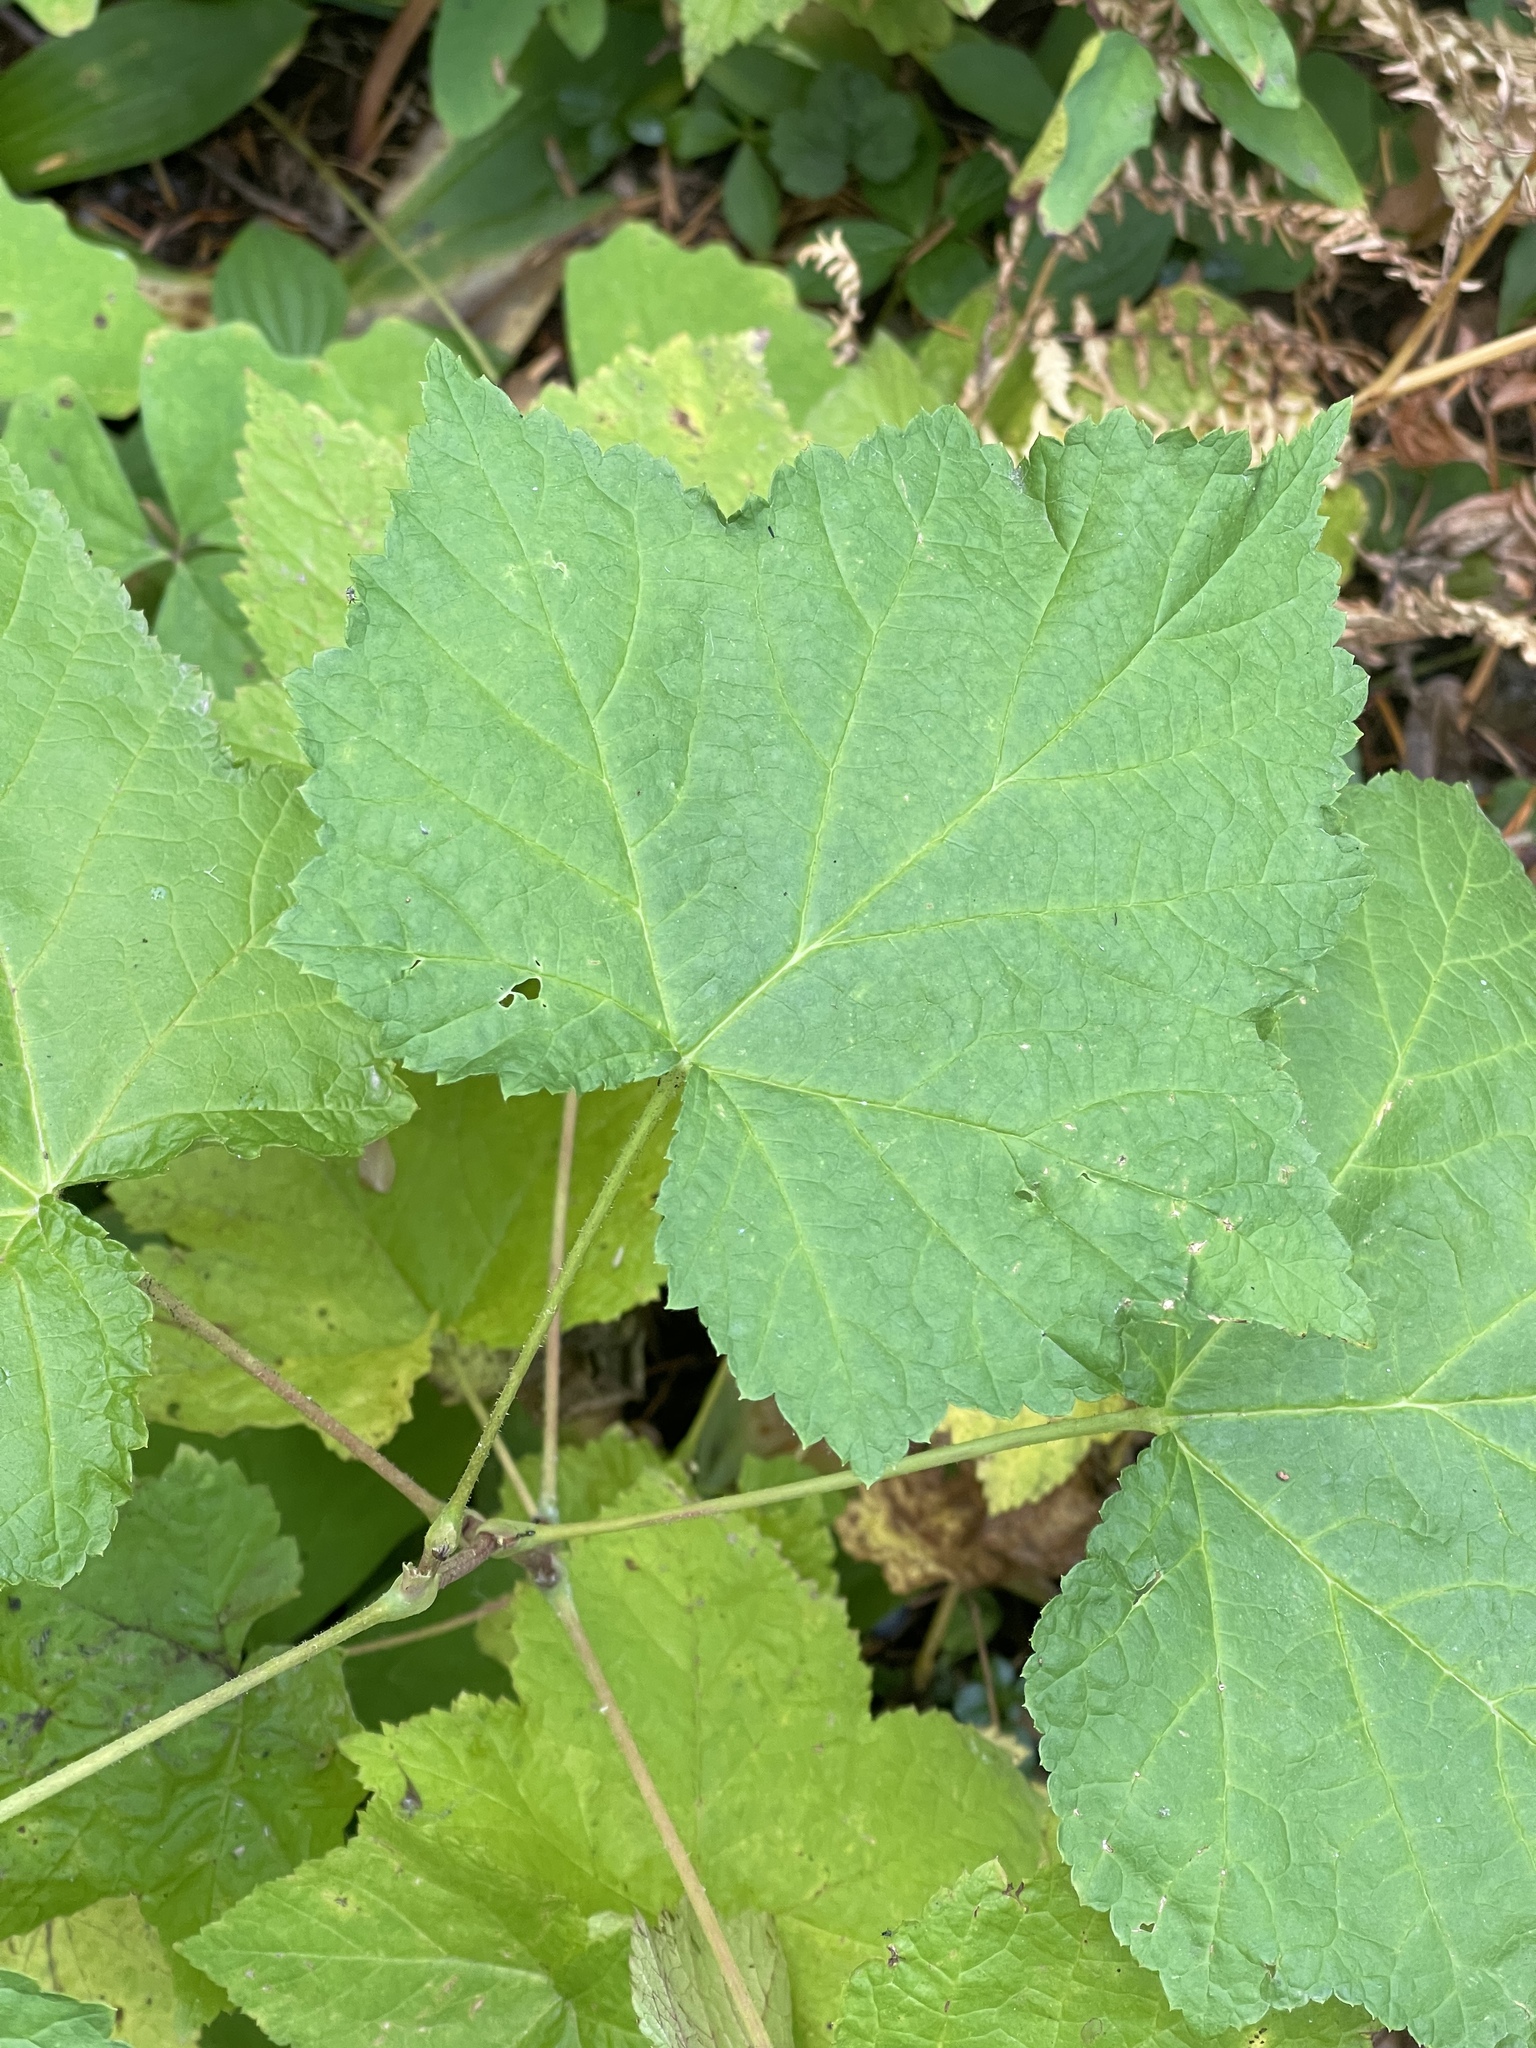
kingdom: Plantae
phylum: Tracheophyta
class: Magnoliopsida
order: Rosales
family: Rosaceae
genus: Rubus
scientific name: Rubus parviflorus
